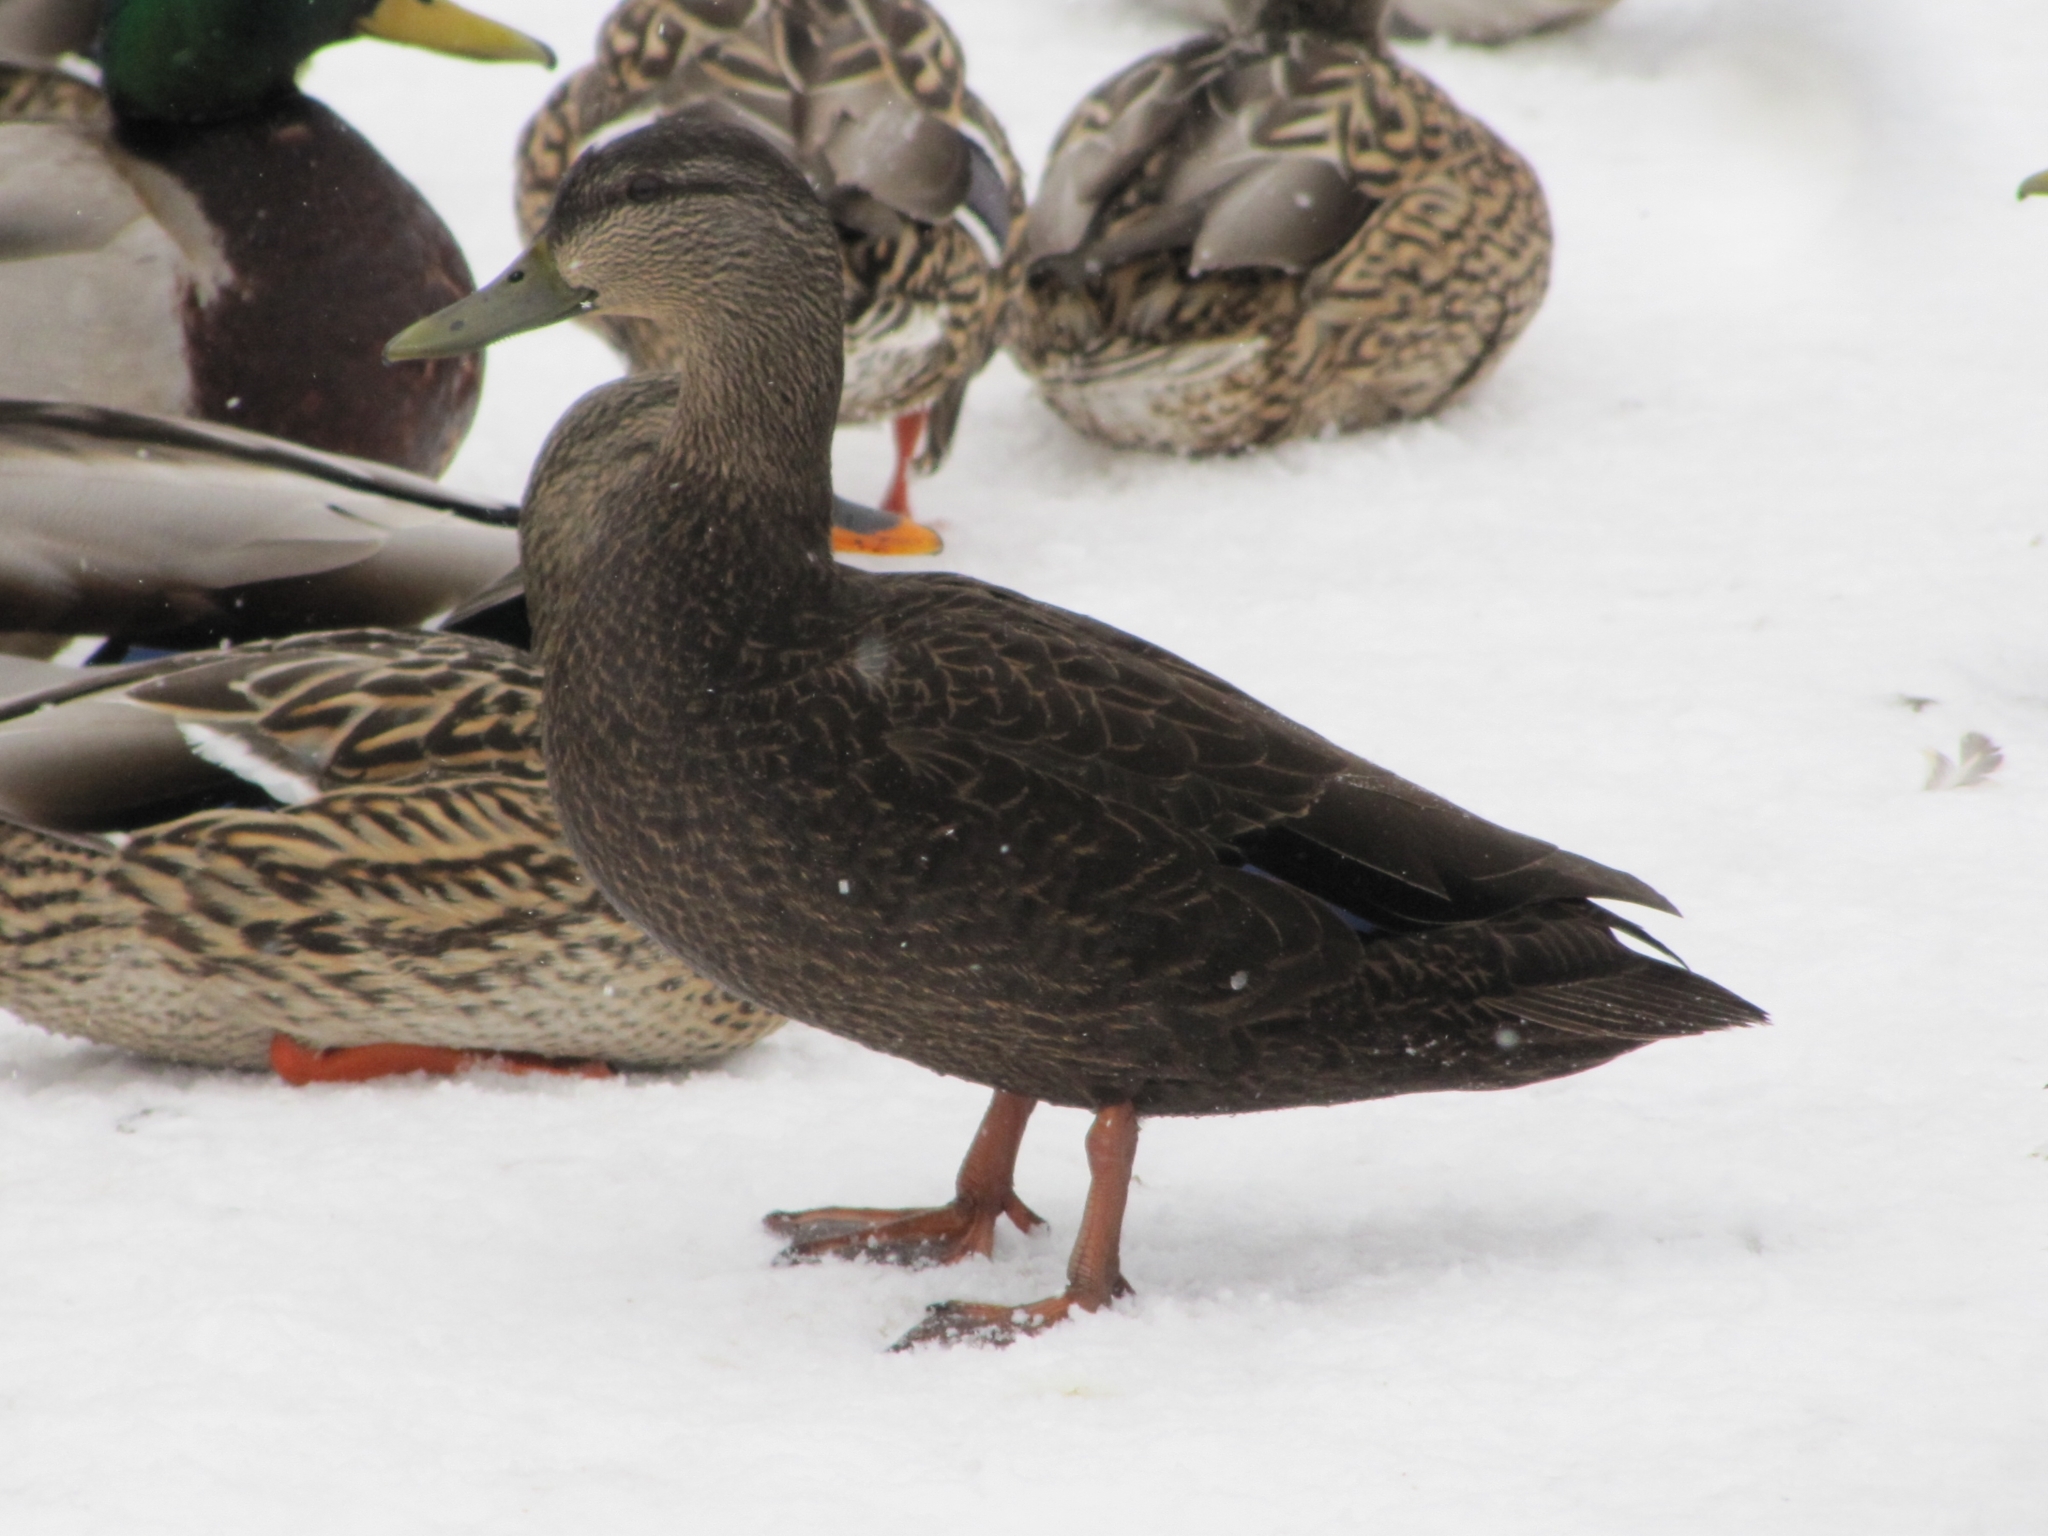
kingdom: Animalia
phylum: Chordata
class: Aves
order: Anseriformes
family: Anatidae
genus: Anas
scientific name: Anas rubripes
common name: American black duck
